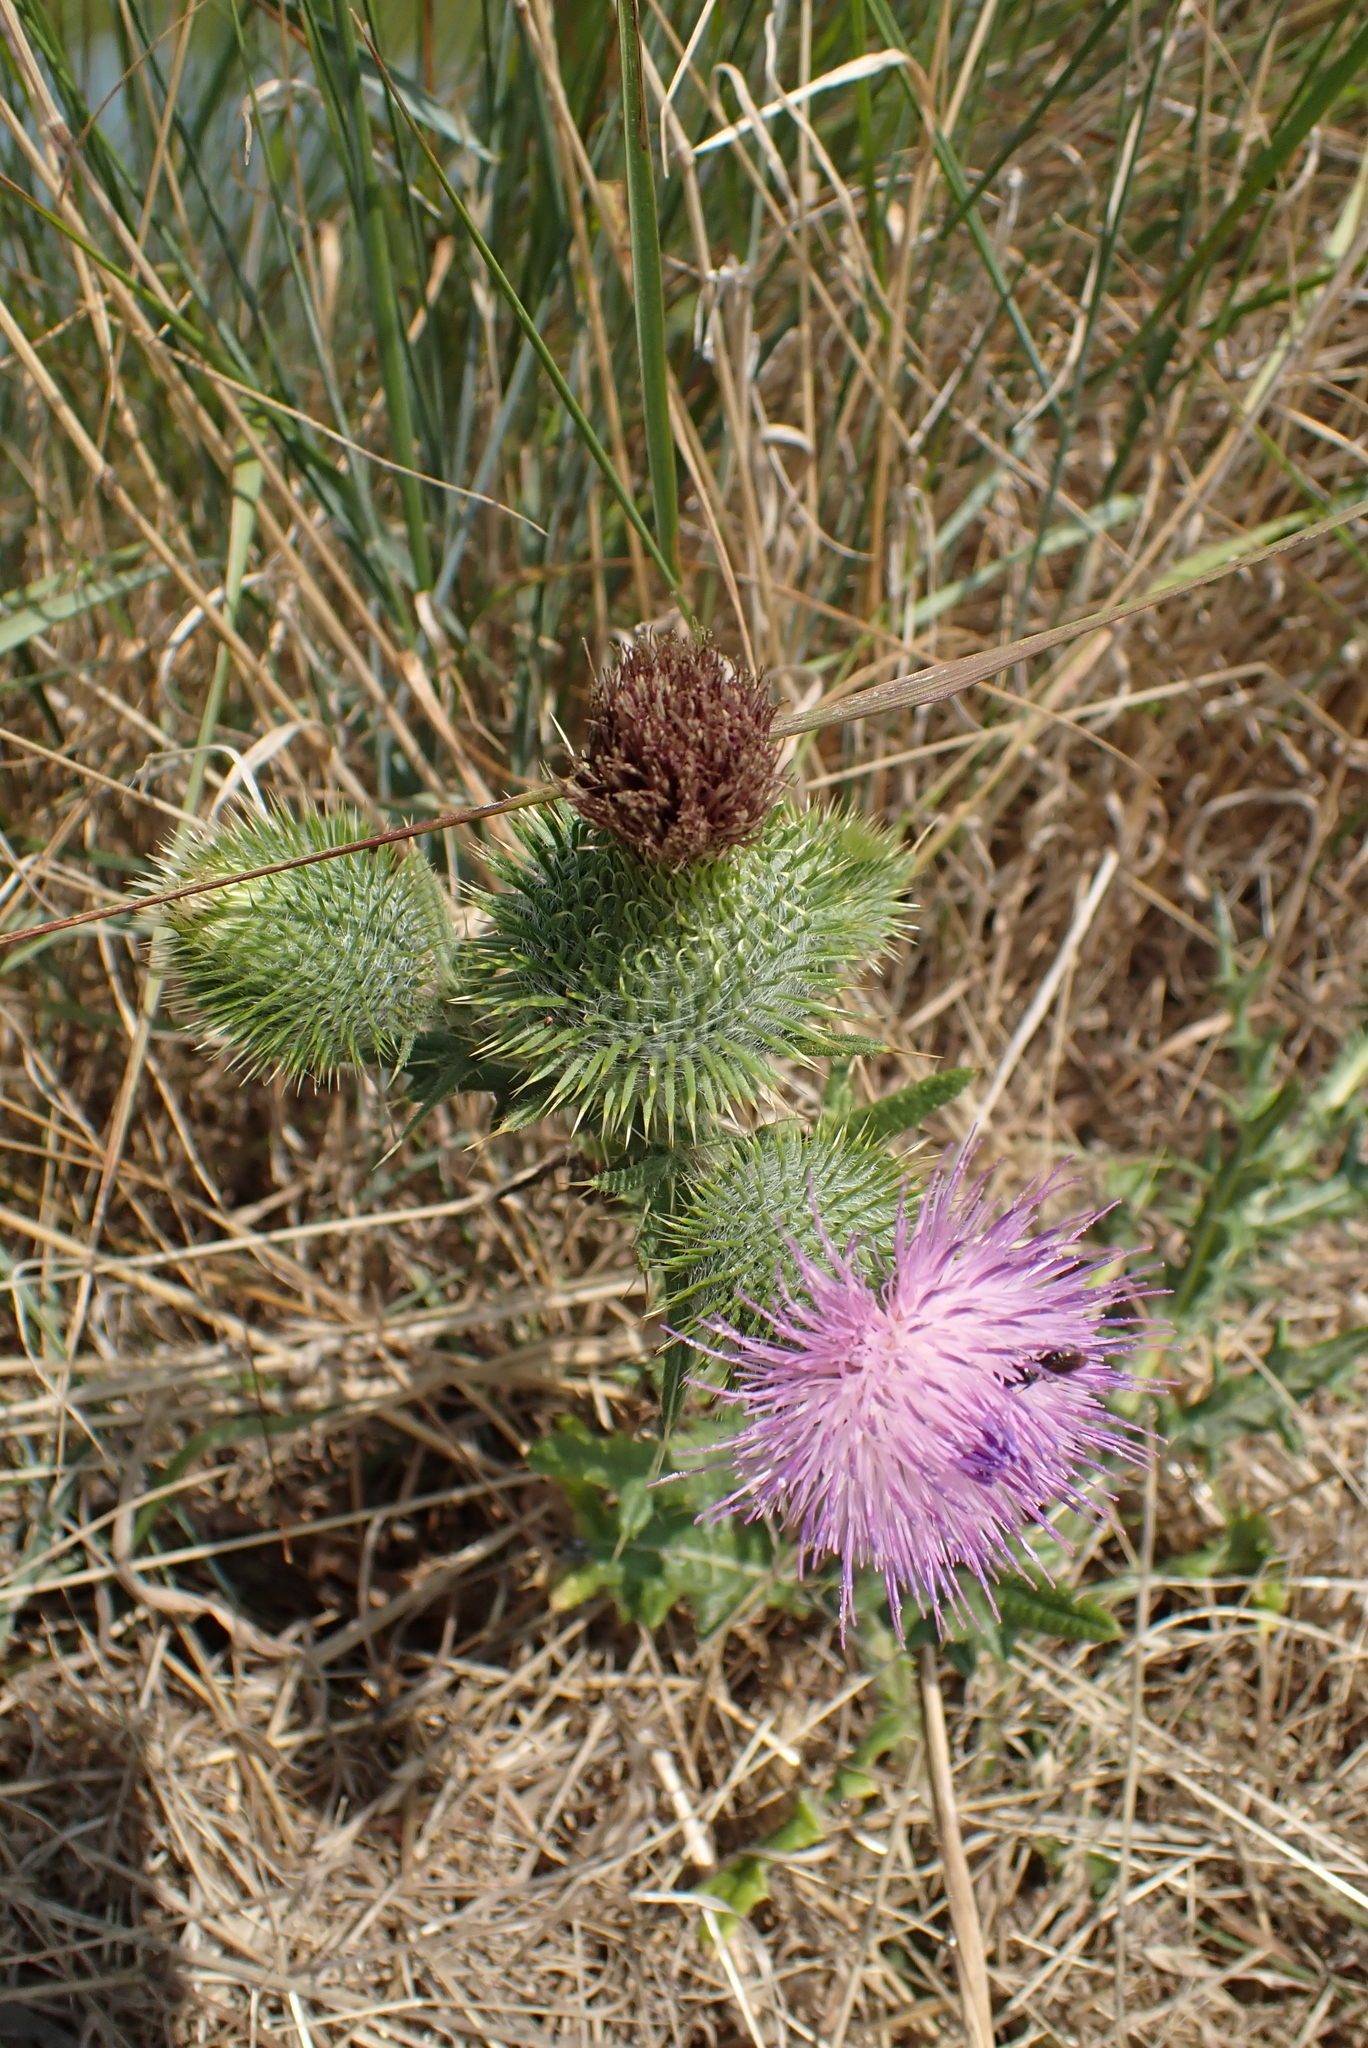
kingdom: Plantae
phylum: Tracheophyta
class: Magnoliopsida
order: Asterales
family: Asteraceae
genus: Cirsium
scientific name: Cirsium vulgare
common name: Bull thistle
